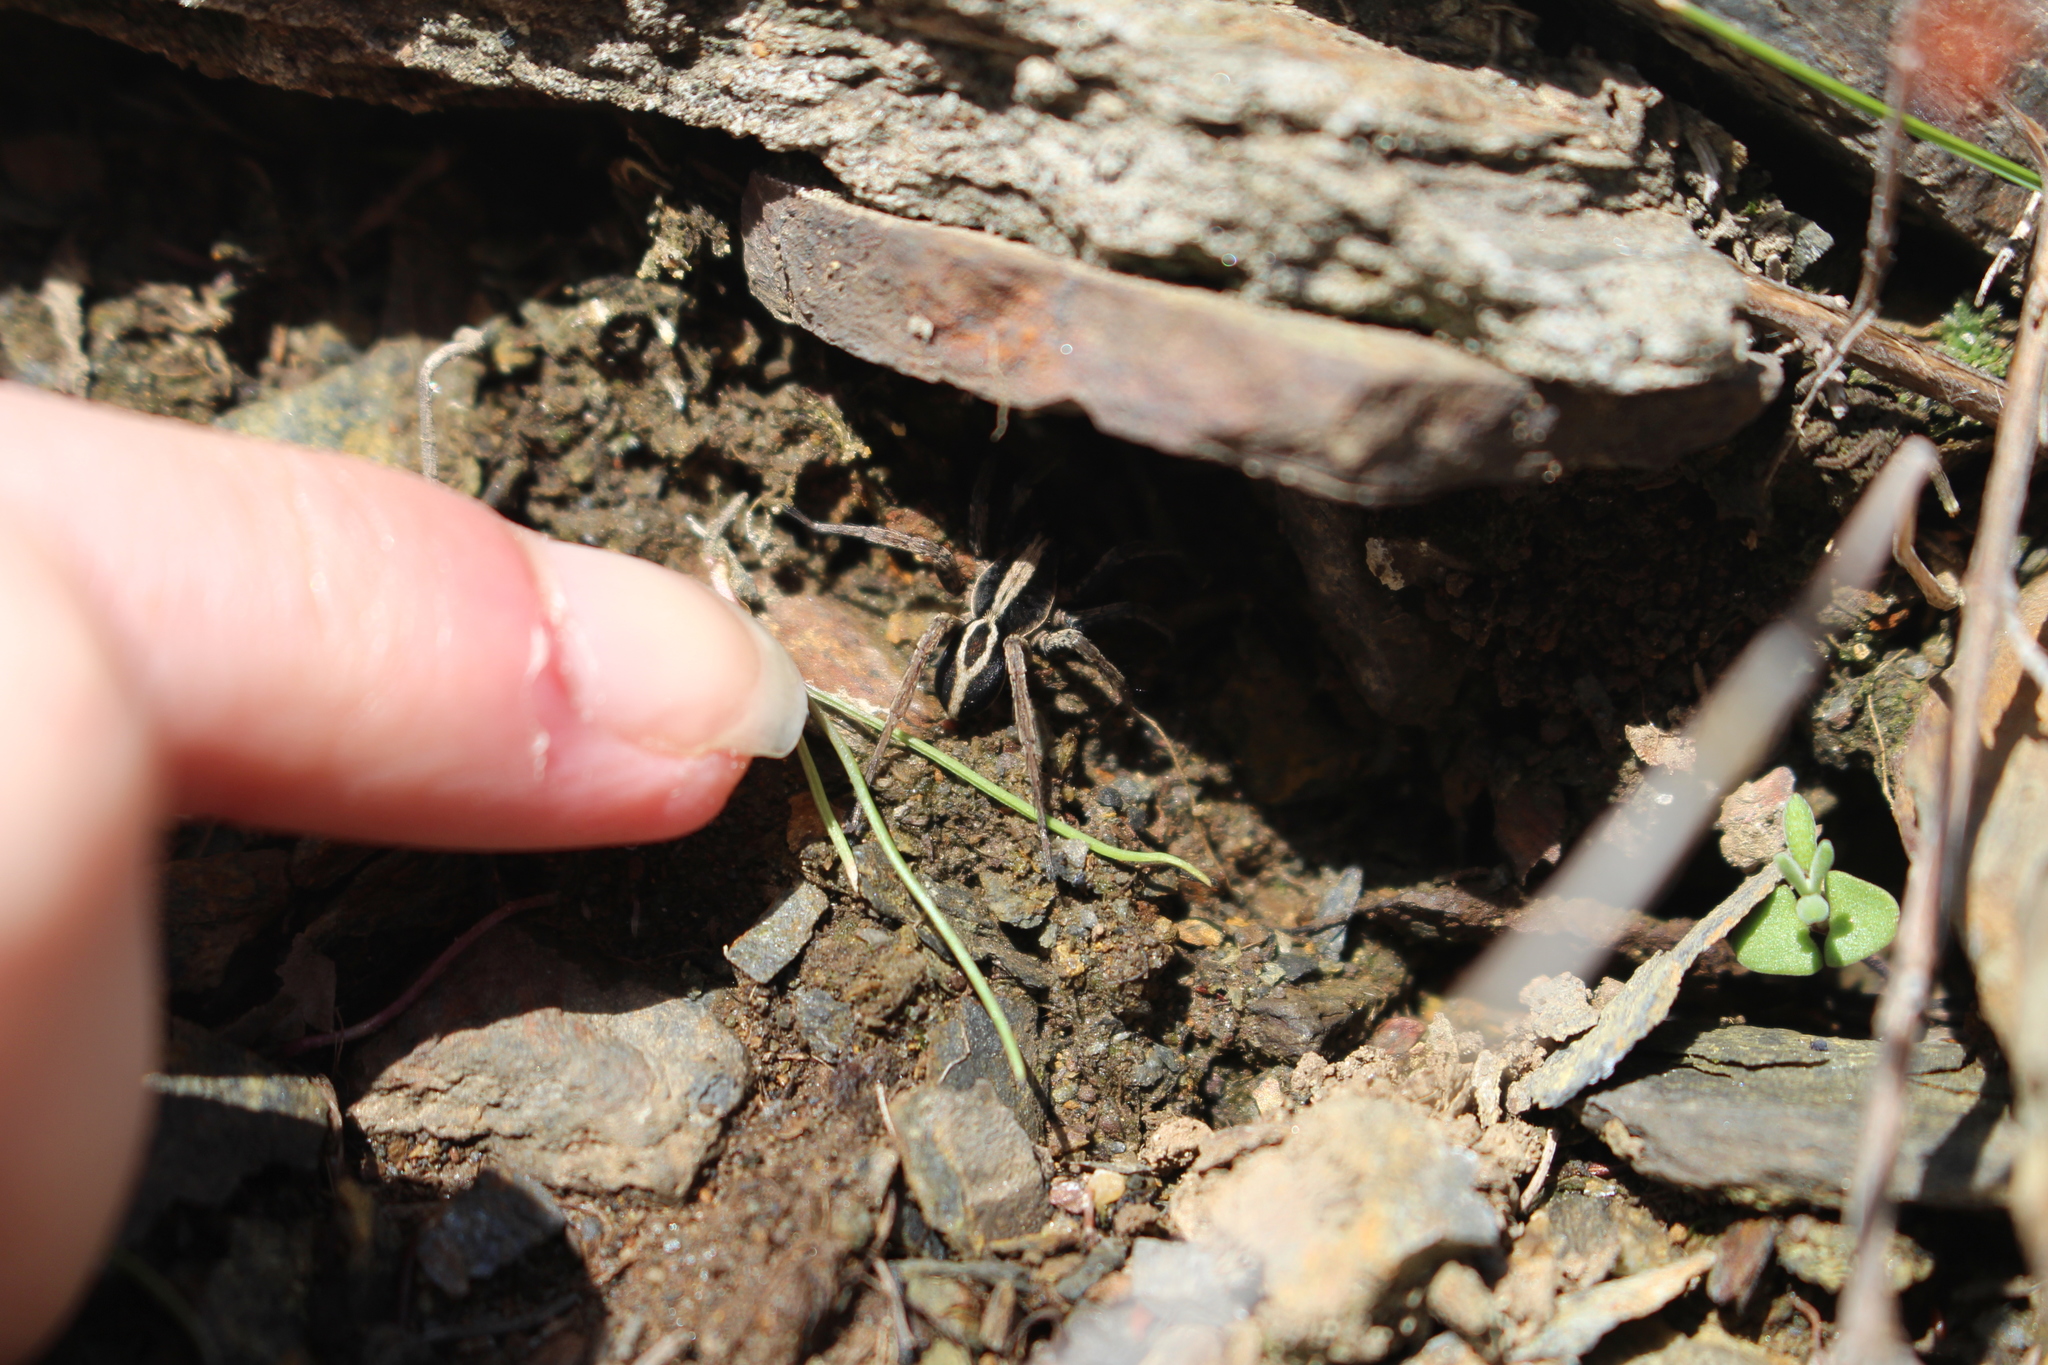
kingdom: Animalia
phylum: Arthropoda
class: Arachnida
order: Araneae
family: Lycosidae
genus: Alopecosa
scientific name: Alopecosa albofasciata
